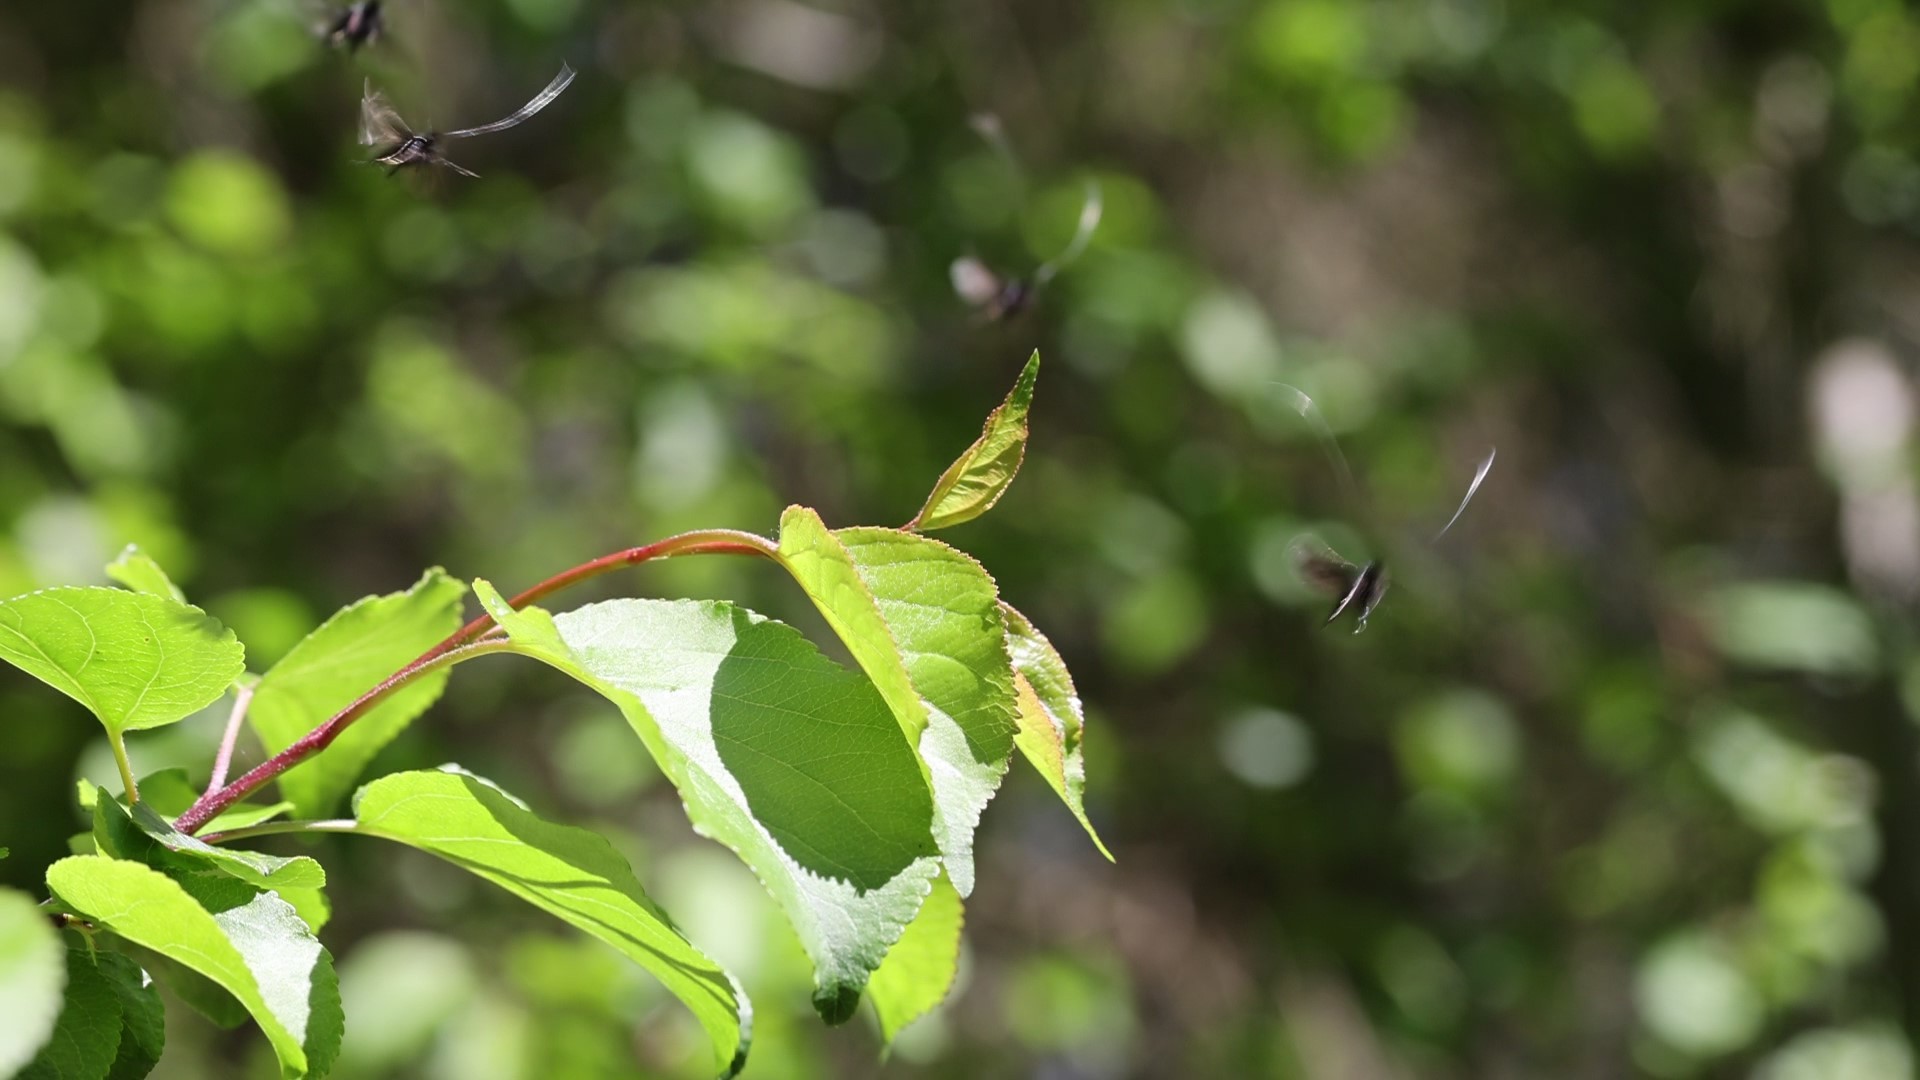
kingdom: Animalia
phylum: Arthropoda
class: Insecta
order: Lepidoptera
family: Adelidae
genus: Adela
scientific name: Adela viridella
